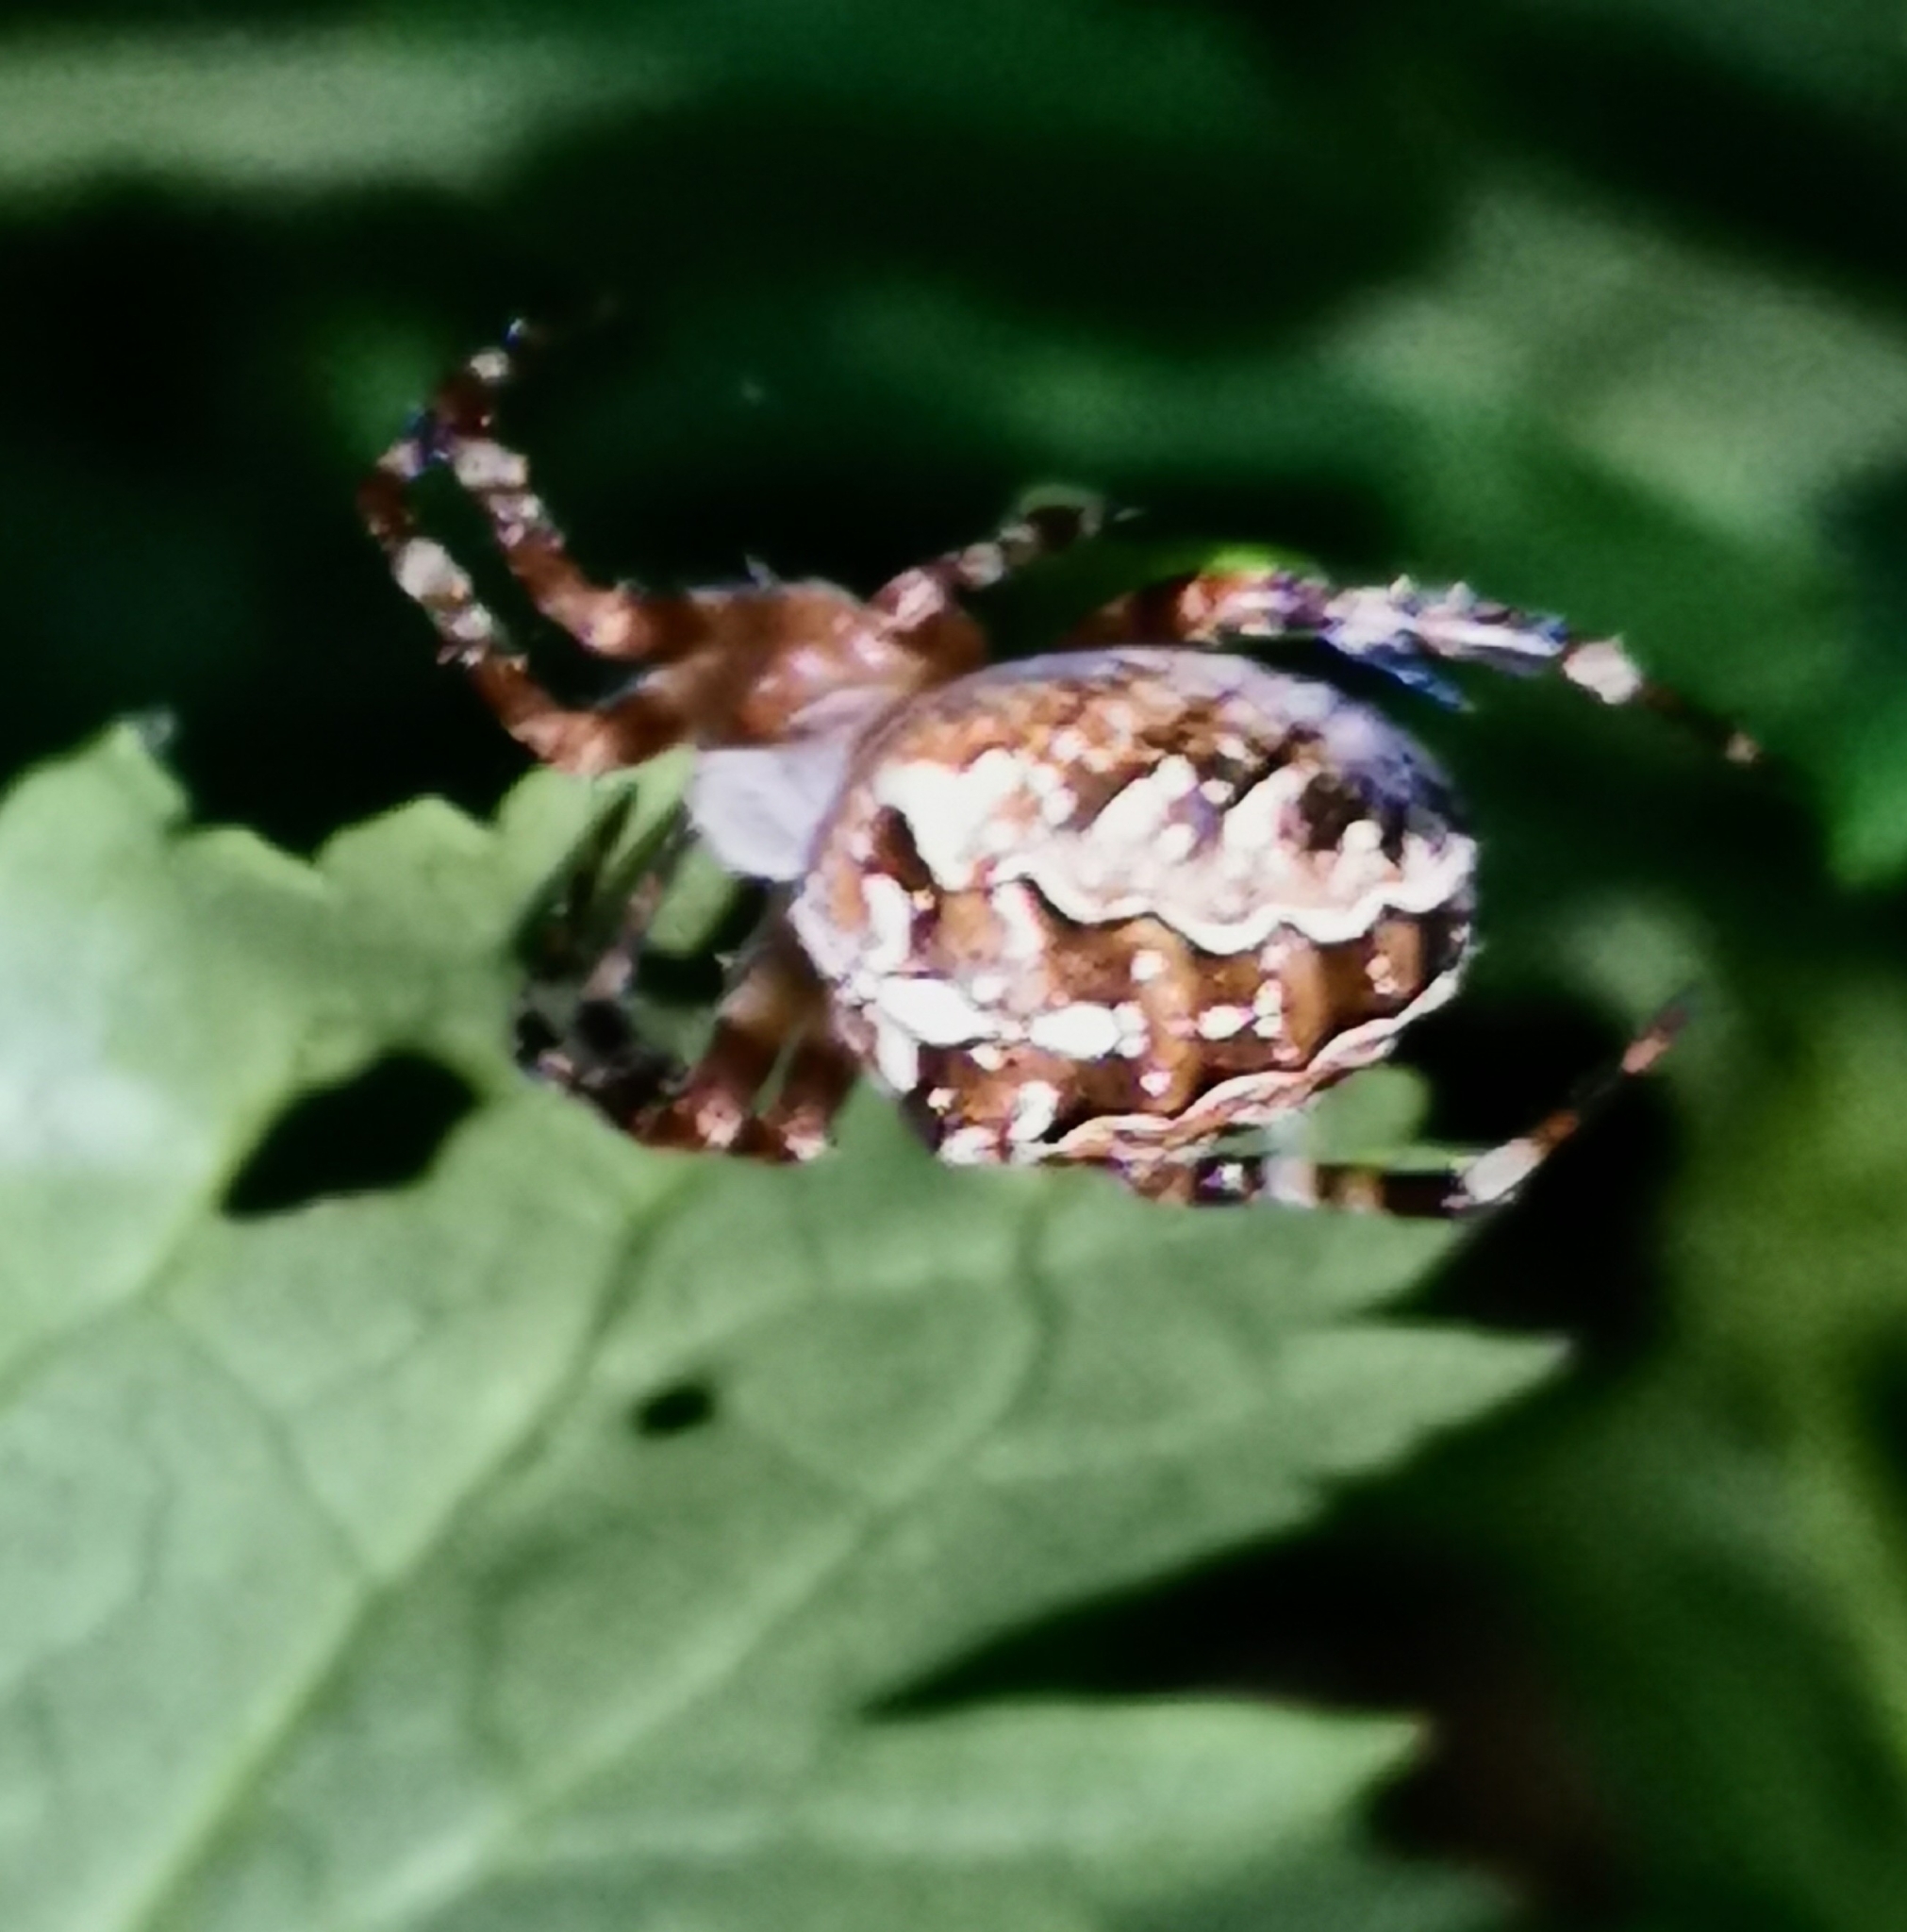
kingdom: Animalia
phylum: Arthropoda
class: Arachnida
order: Araneae
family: Araneidae
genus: Araneus
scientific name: Araneus diadematus
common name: Cross orbweaver
